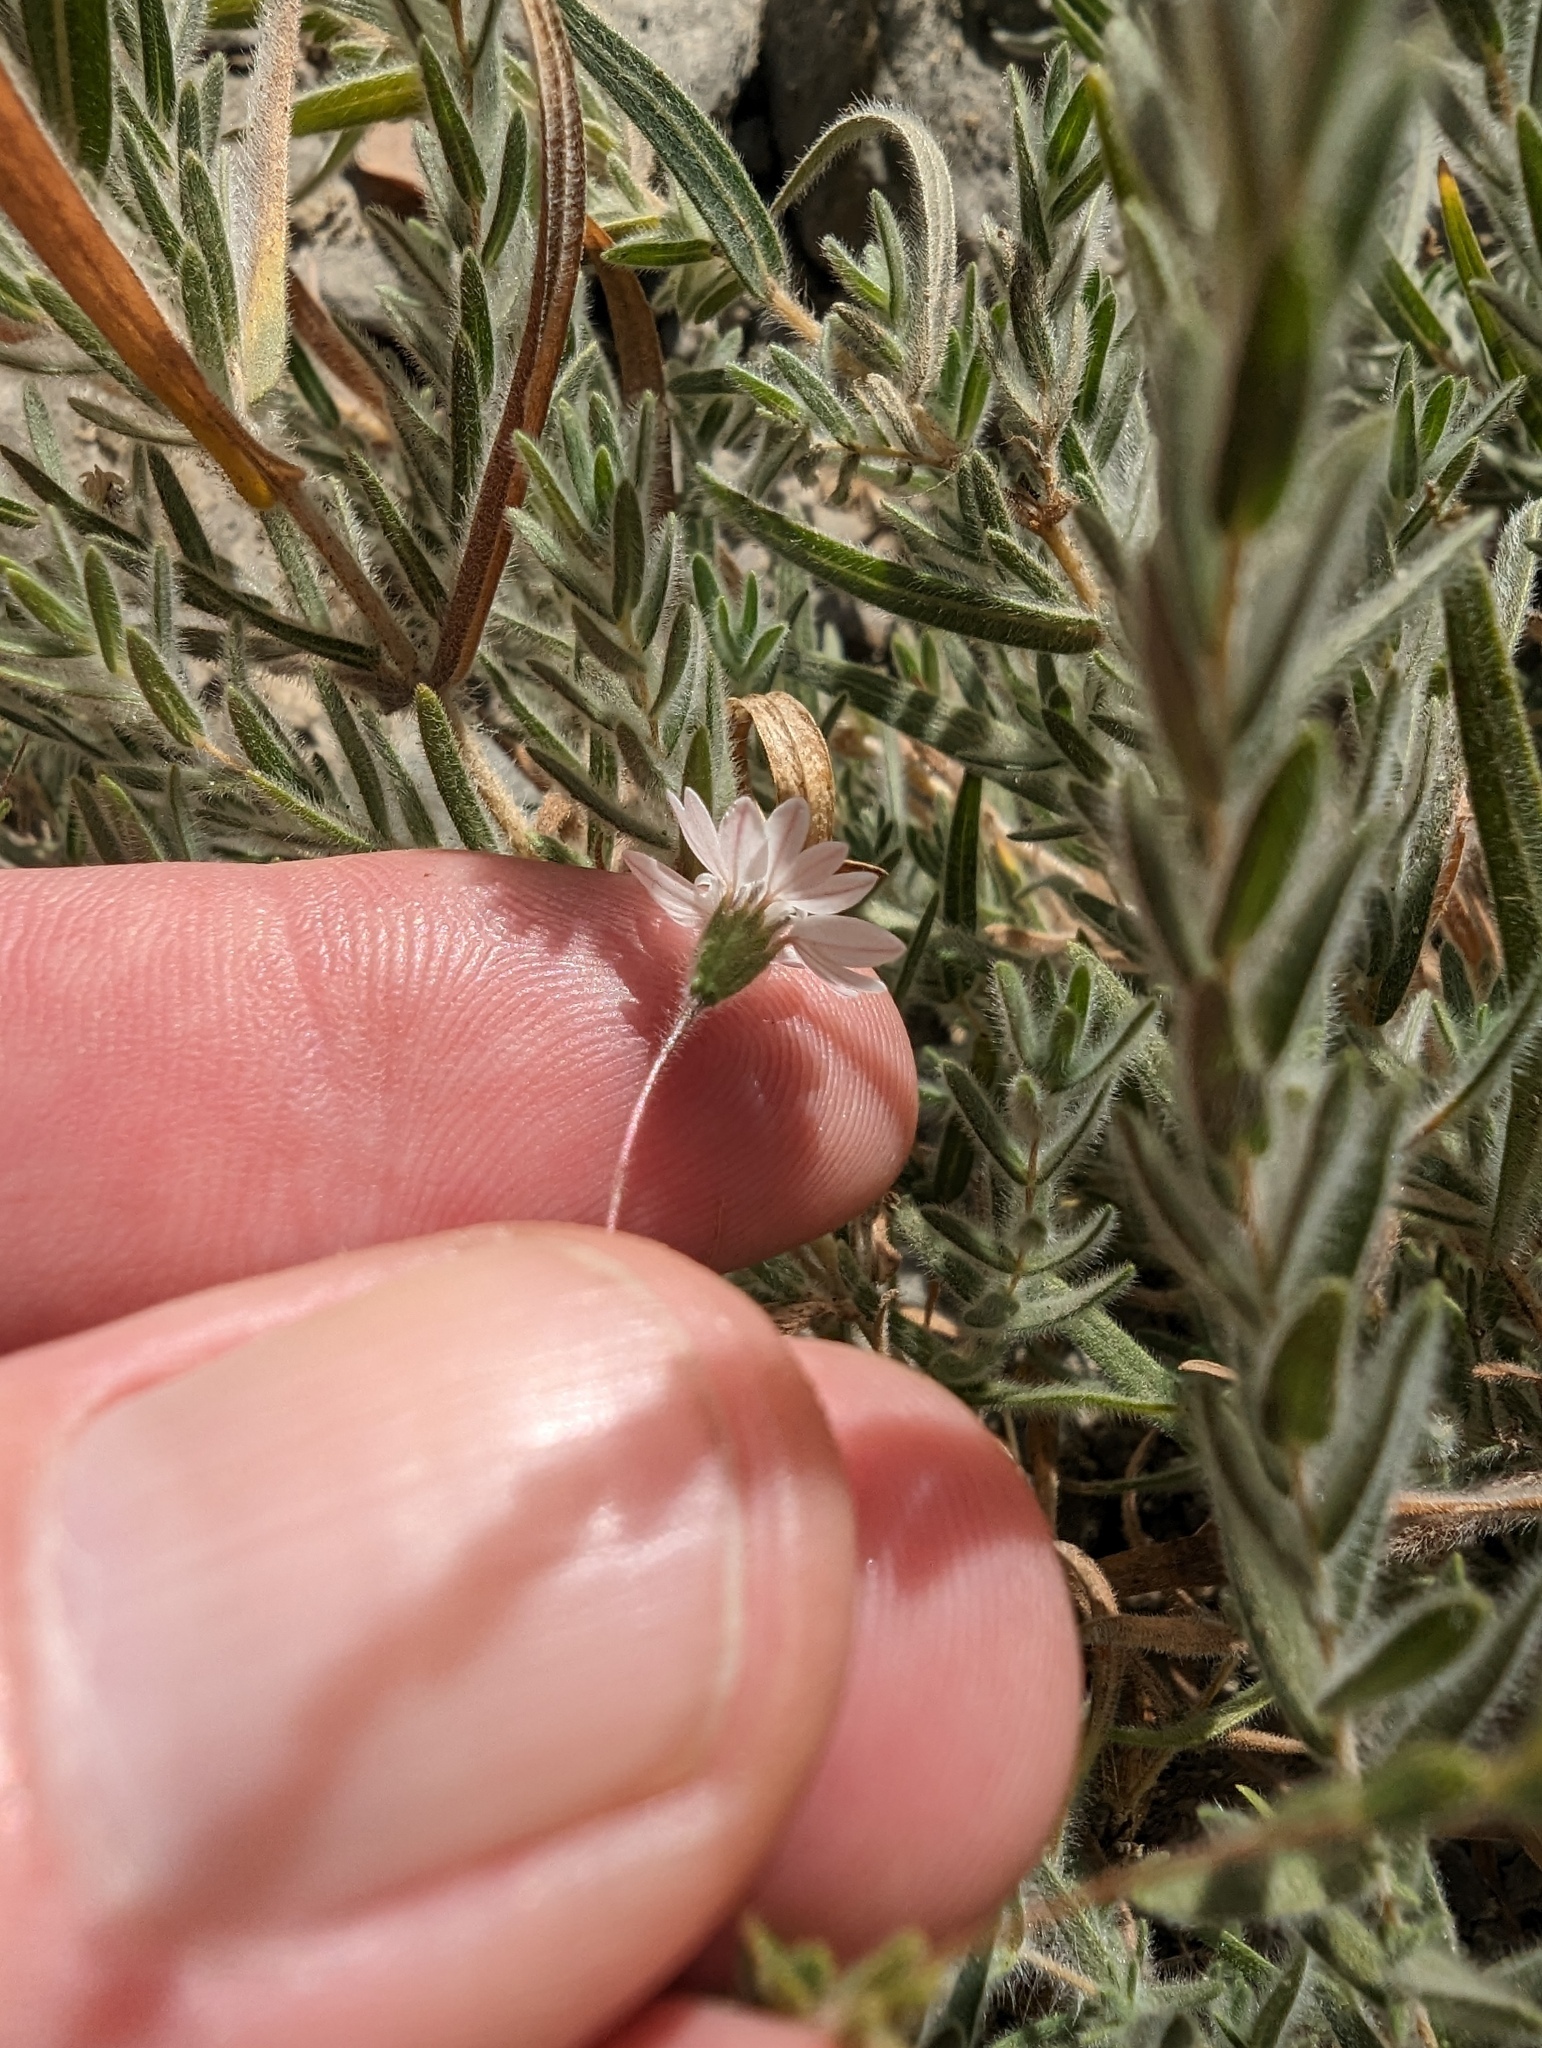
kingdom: Plantae
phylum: Tracheophyta
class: Magnoliopsida
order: Asterales
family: Asteraceae
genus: Holozonia
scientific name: Holozonia filipes
